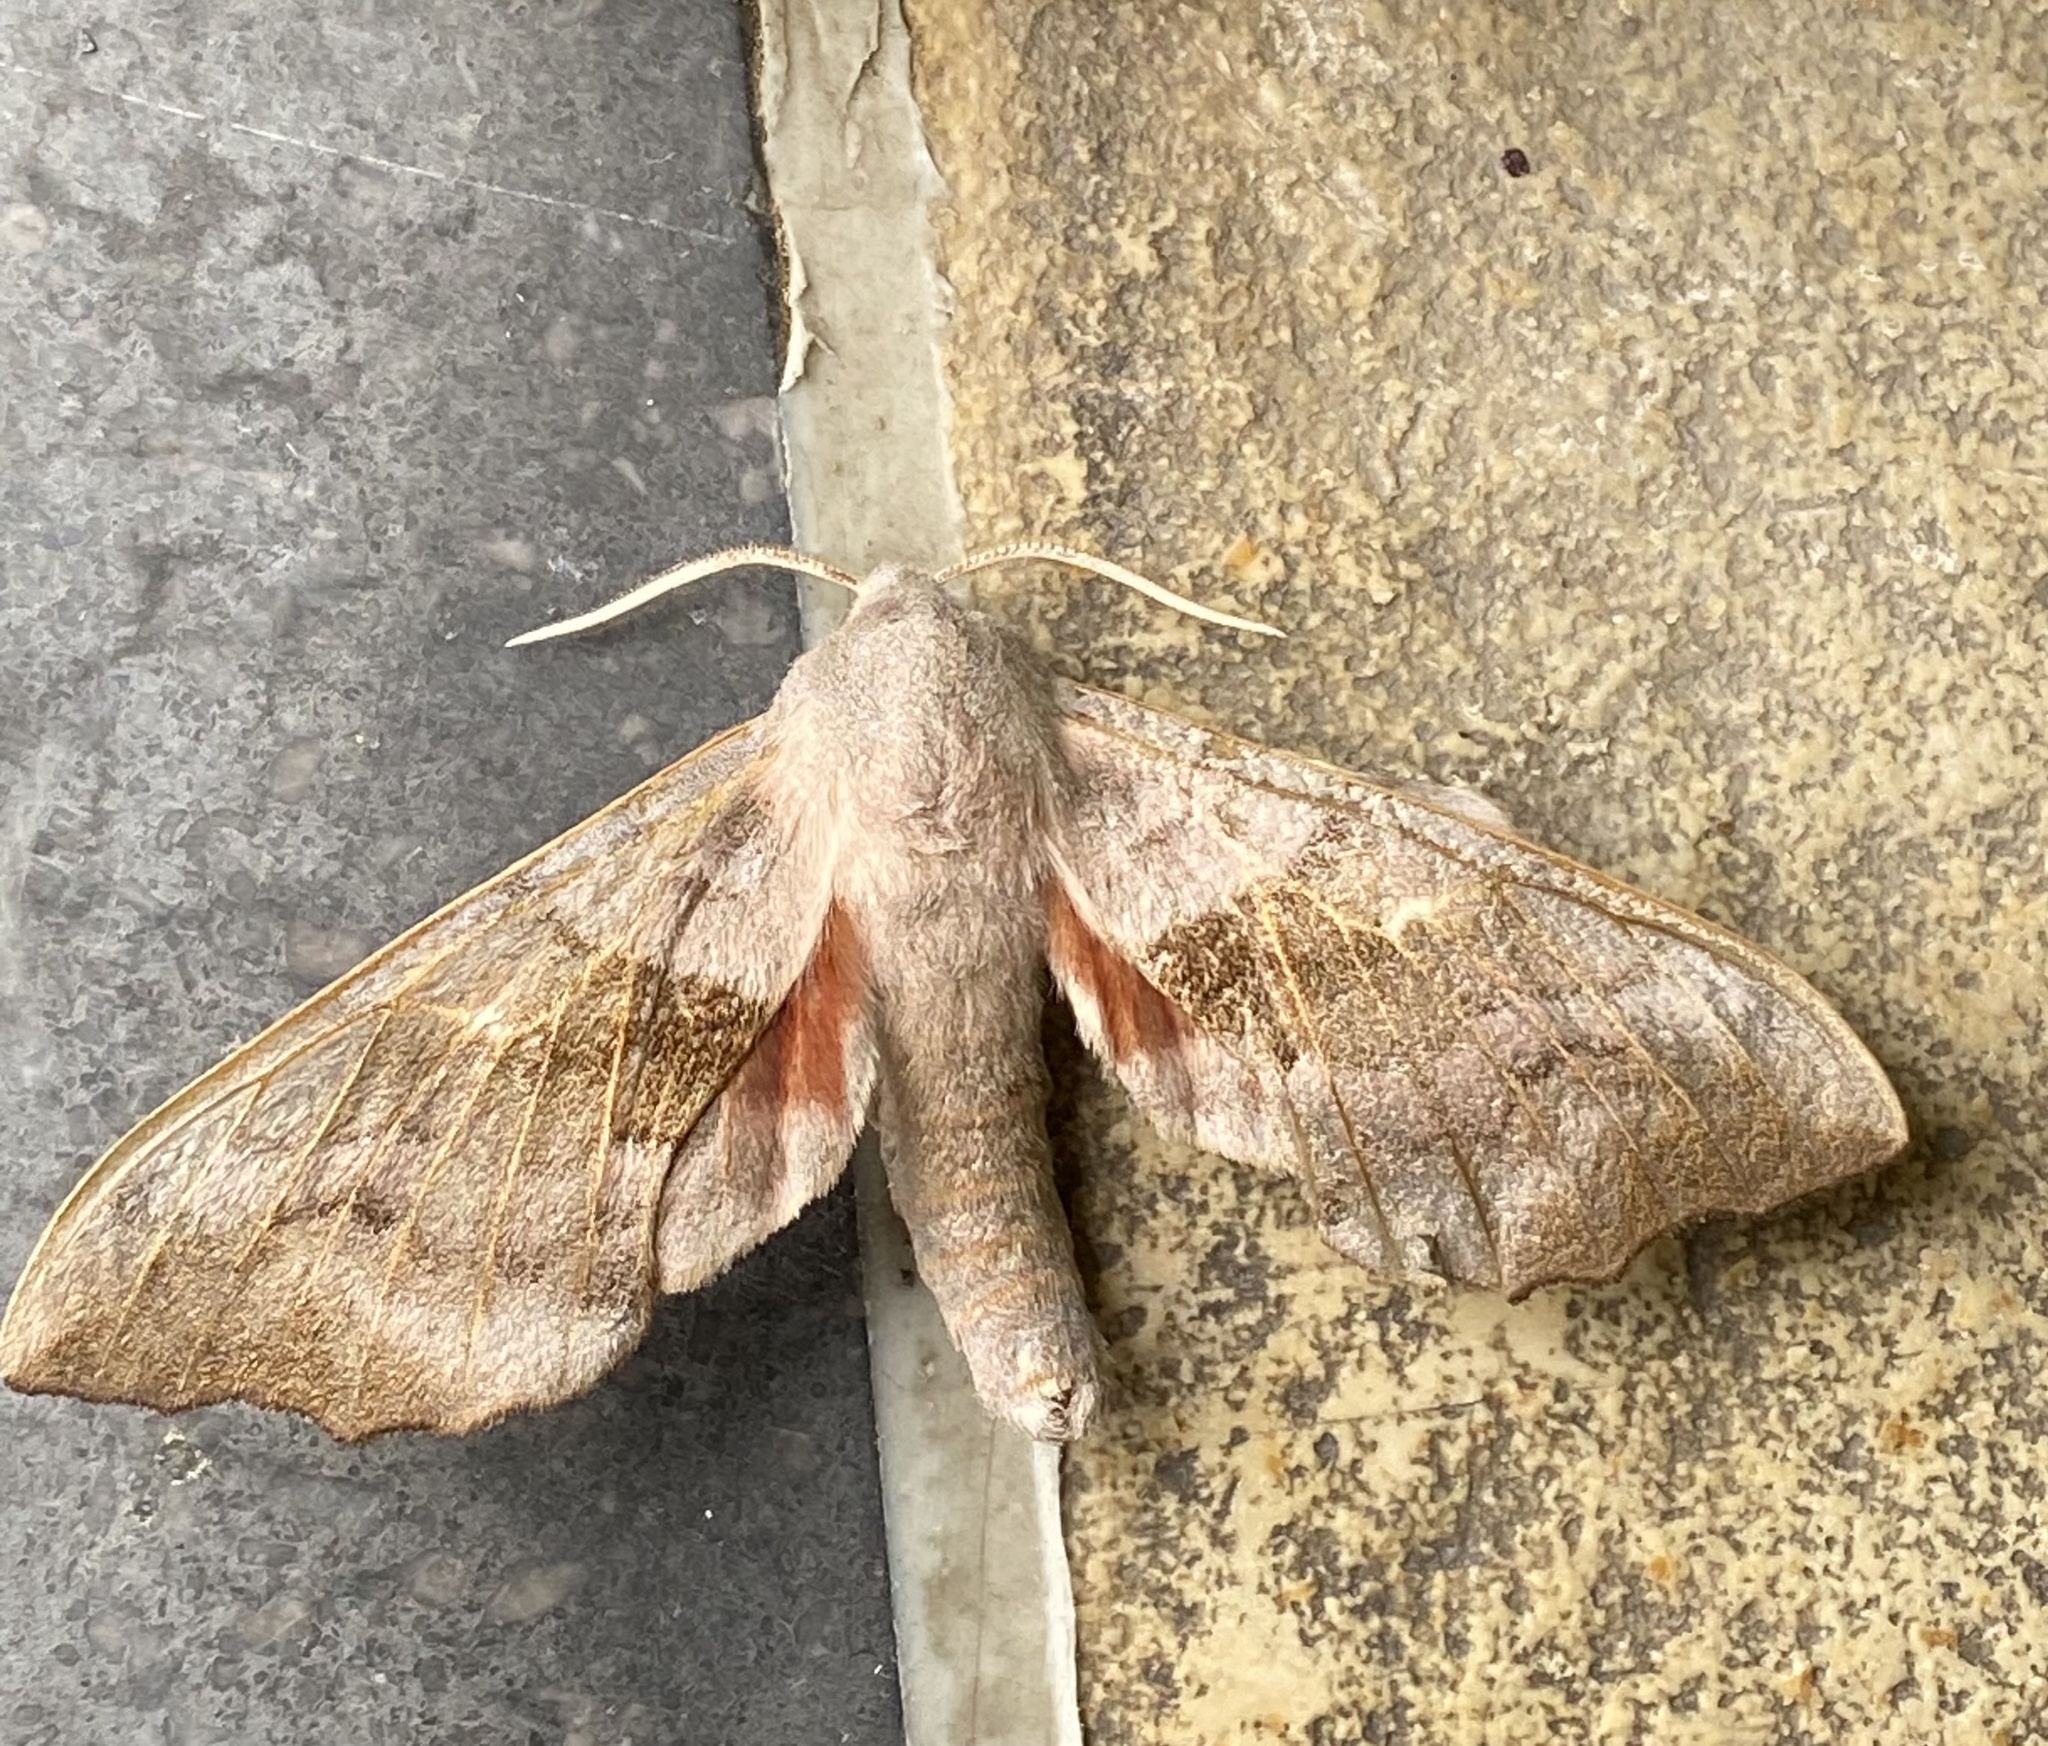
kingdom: Animalia
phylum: Arthropoda
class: Insecta
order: Lepidoptera
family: Sphingidae
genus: Laothoe
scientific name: Laothoe populi
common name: Poplar hawk-moth
